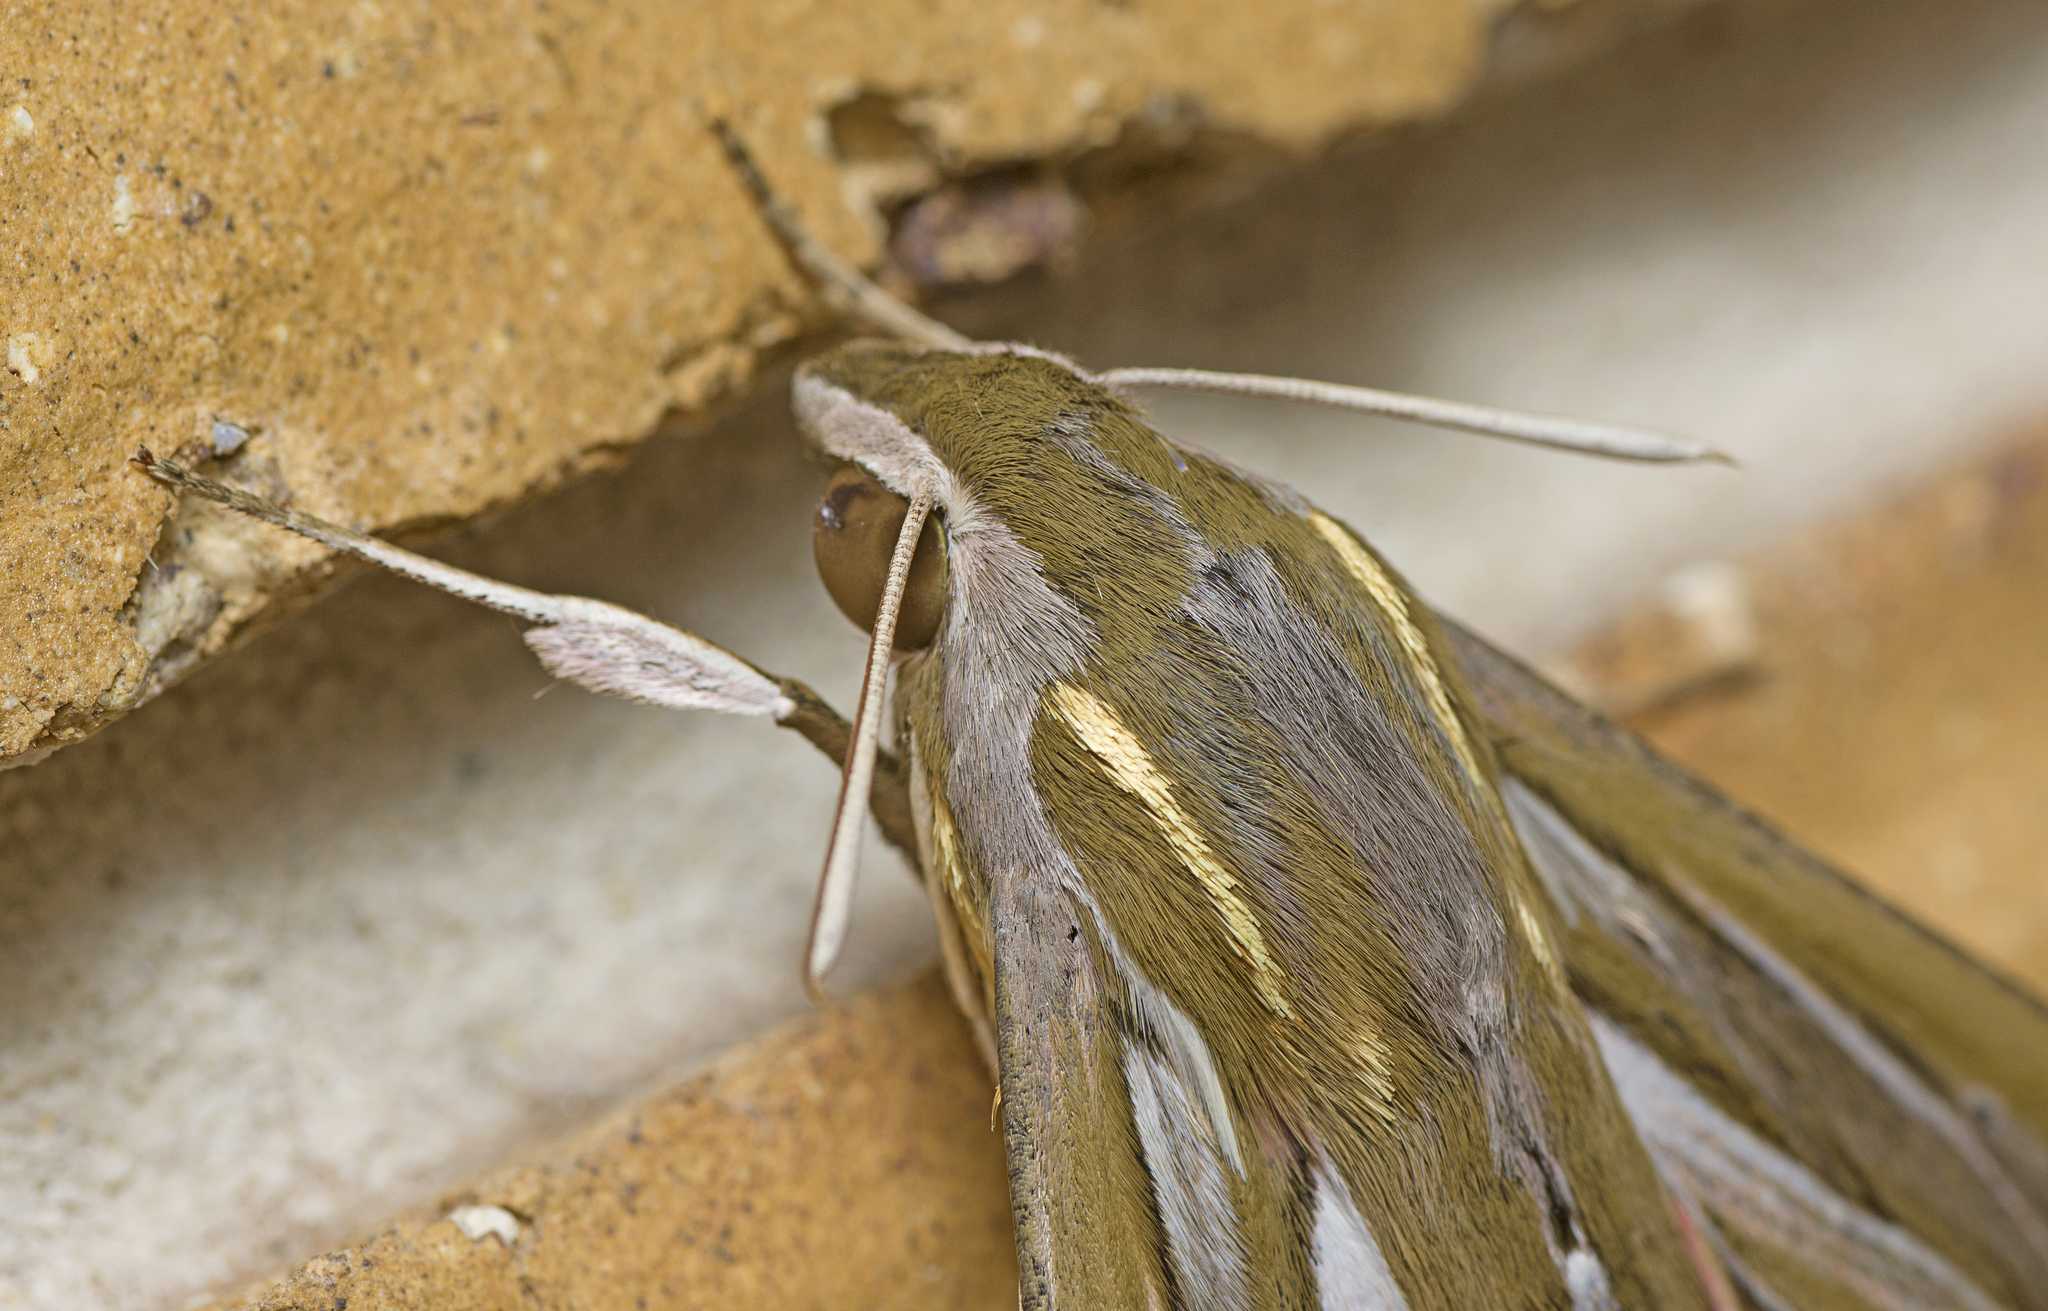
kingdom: Animalia
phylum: Arthropoda
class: Insecta
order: Lepidoptera
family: Sphingidae
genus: Hippotion
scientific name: Hippotion celerio
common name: Silver-striped hawk-moth
